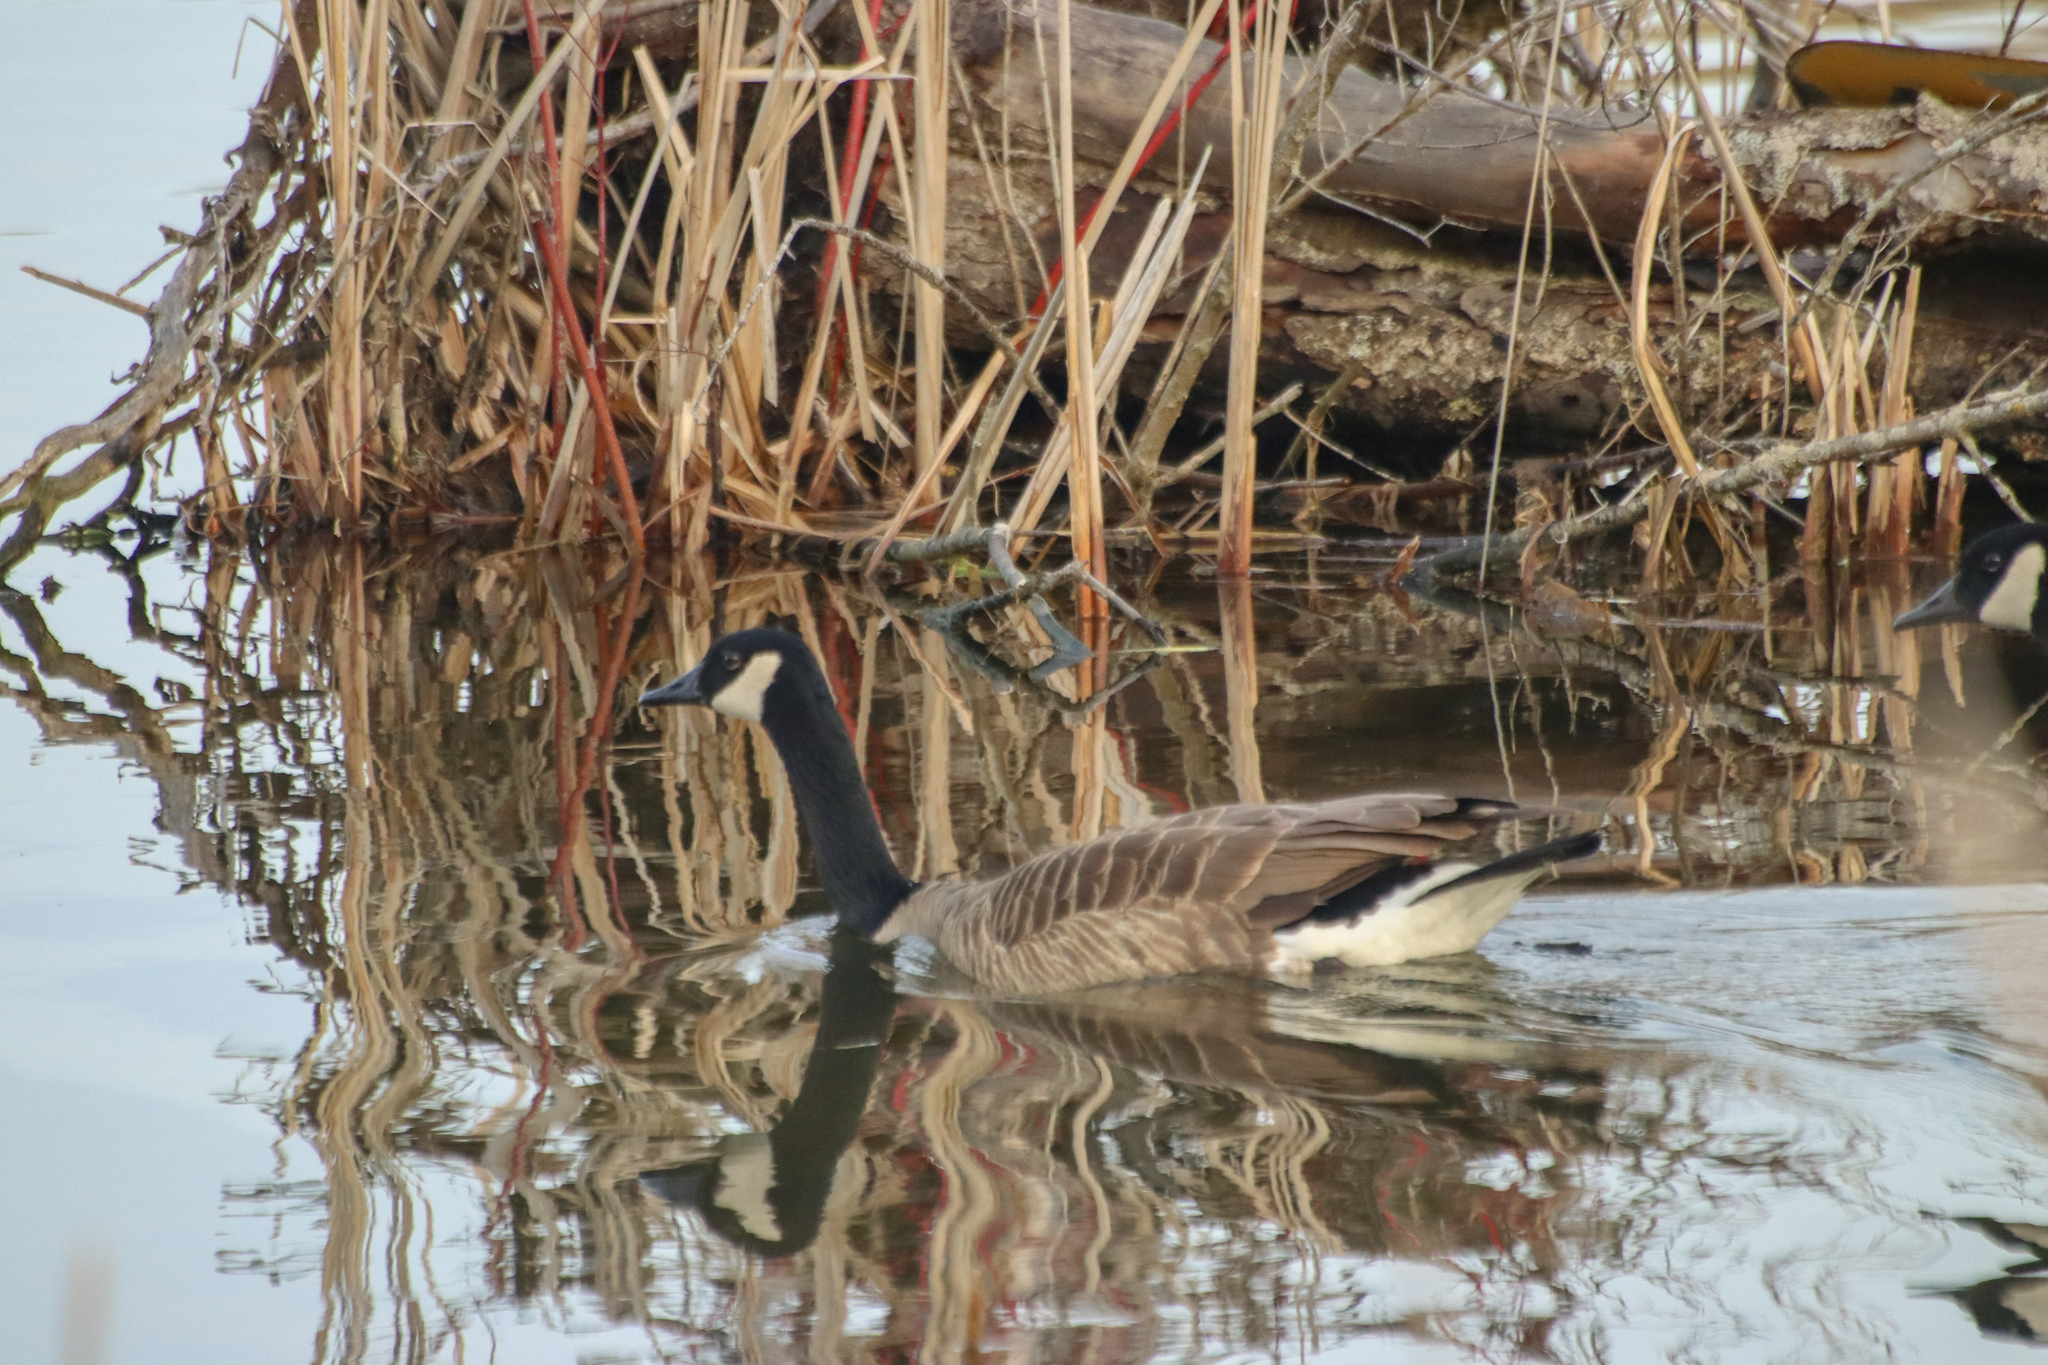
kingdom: Animalia
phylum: Chordata
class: Aves
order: Anseriformes
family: Anatidae
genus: Branta
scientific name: Branta canadensis
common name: Canada goose
